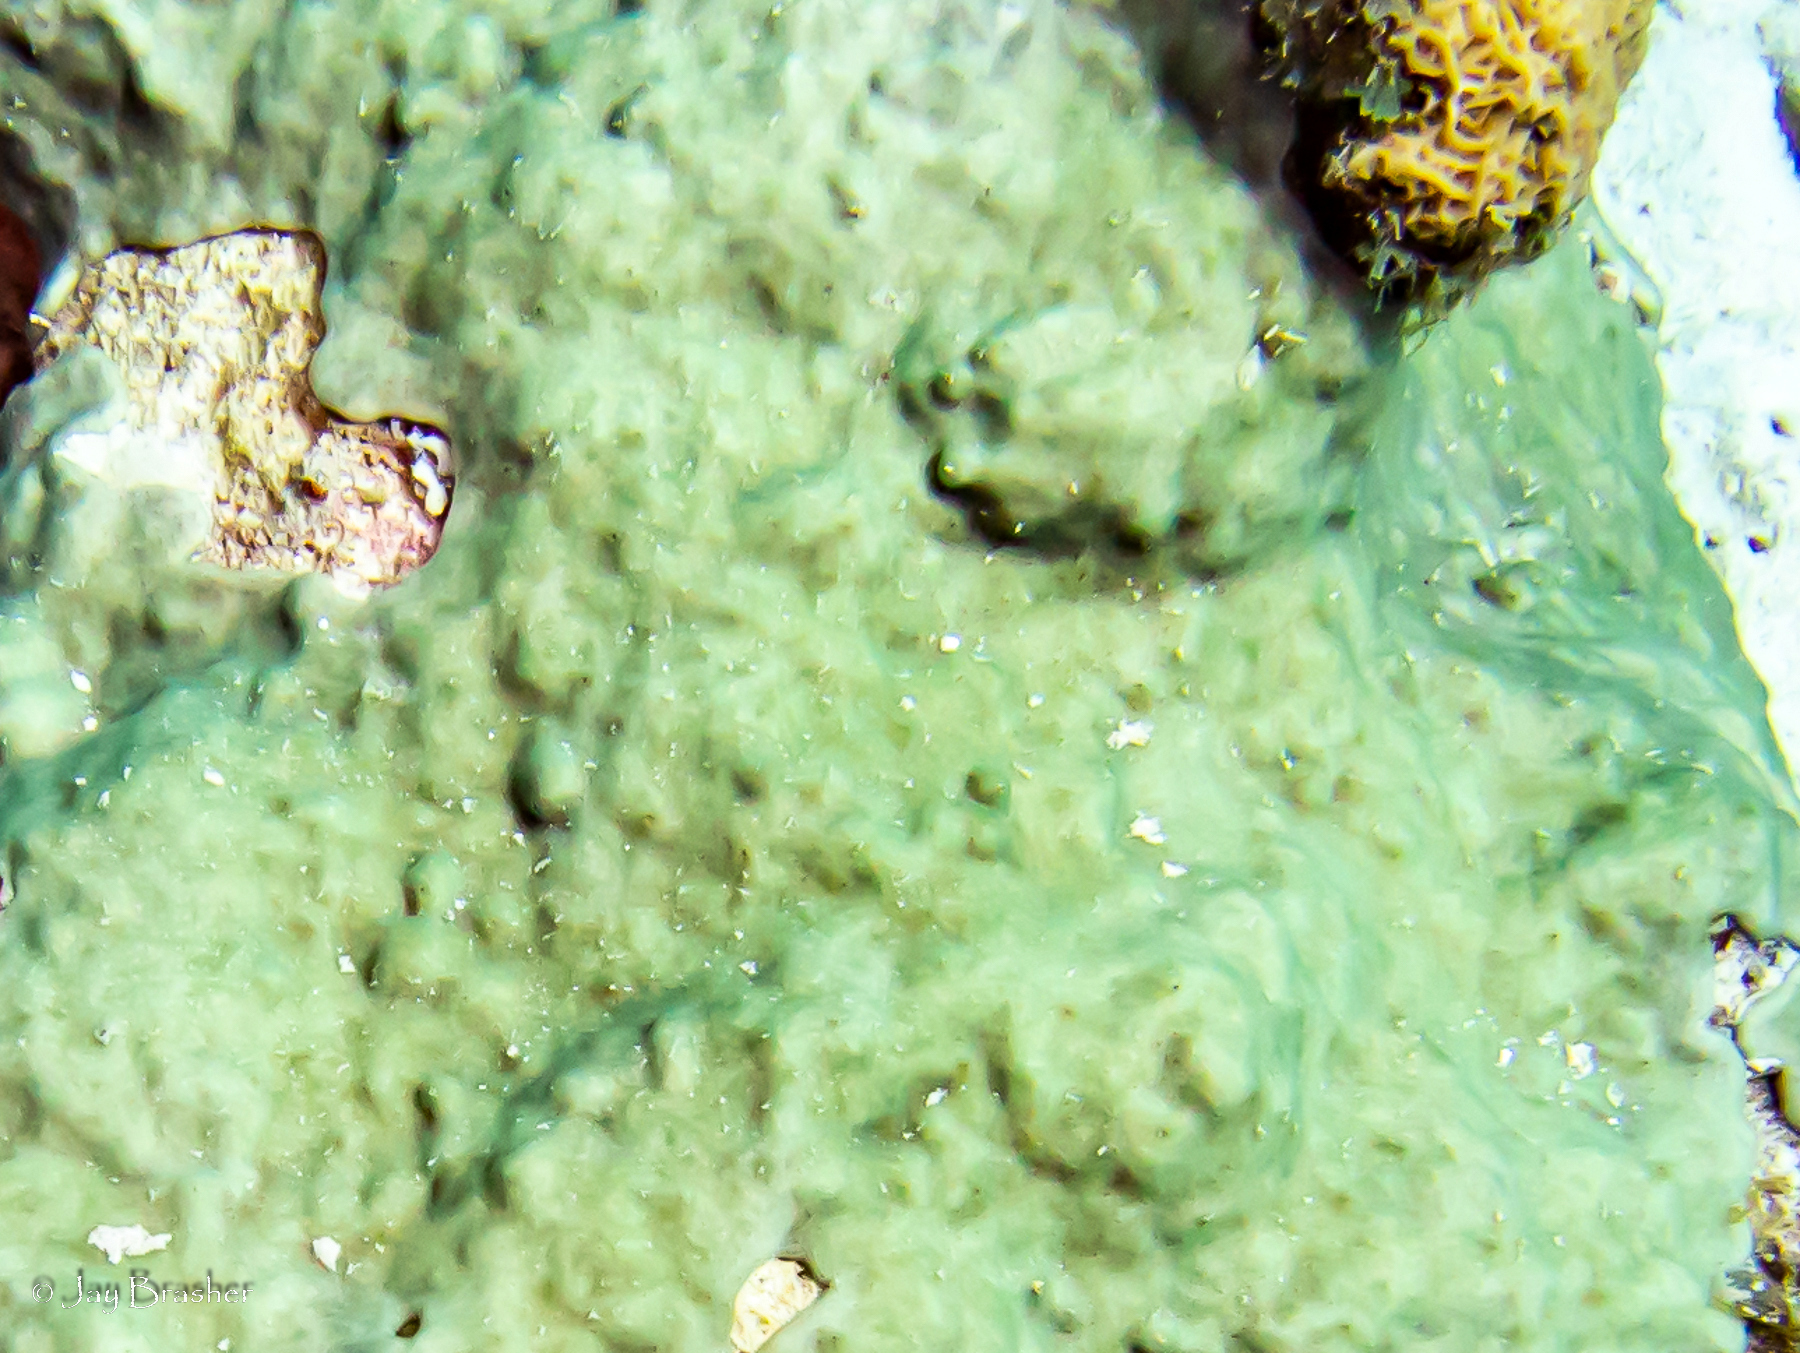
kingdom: Animalia
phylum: Chordata
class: Ascidiacea
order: Aplousobranchia
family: Didemnidae
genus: Trididemnum
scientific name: Trididemnum solidum
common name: Overgrowing mat tunicate
